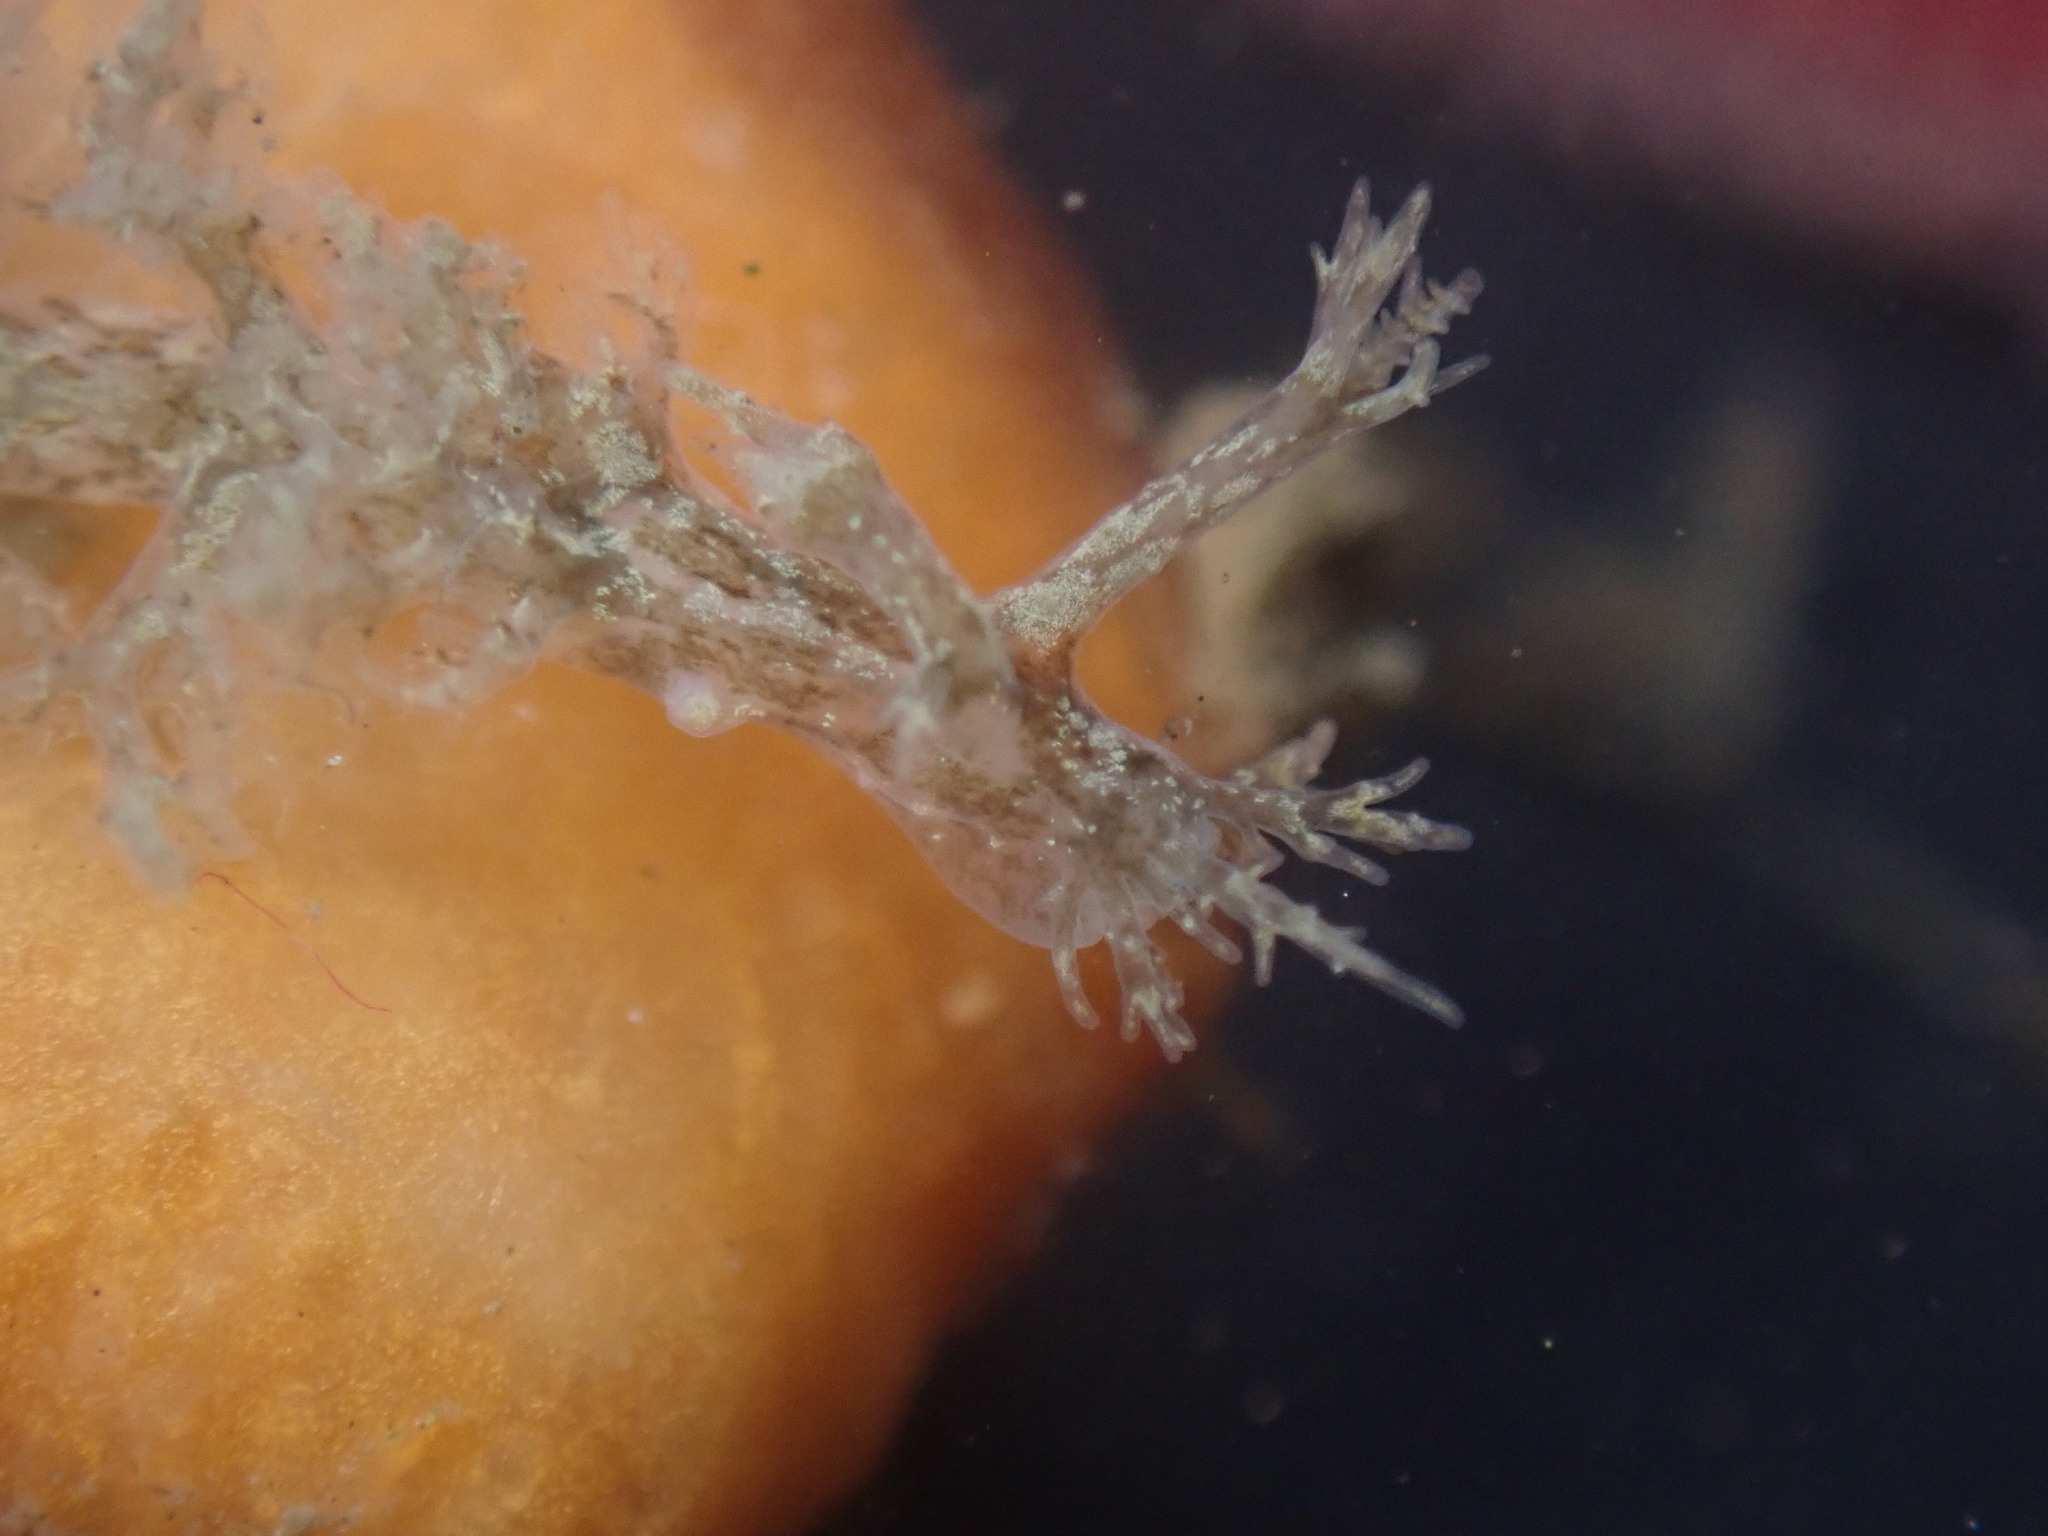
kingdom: Animalia
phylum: Mollusca
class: Gastropoda
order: Nudibranchia
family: Dendronotidae
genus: Dendronotus
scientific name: Dendronotus venustus
